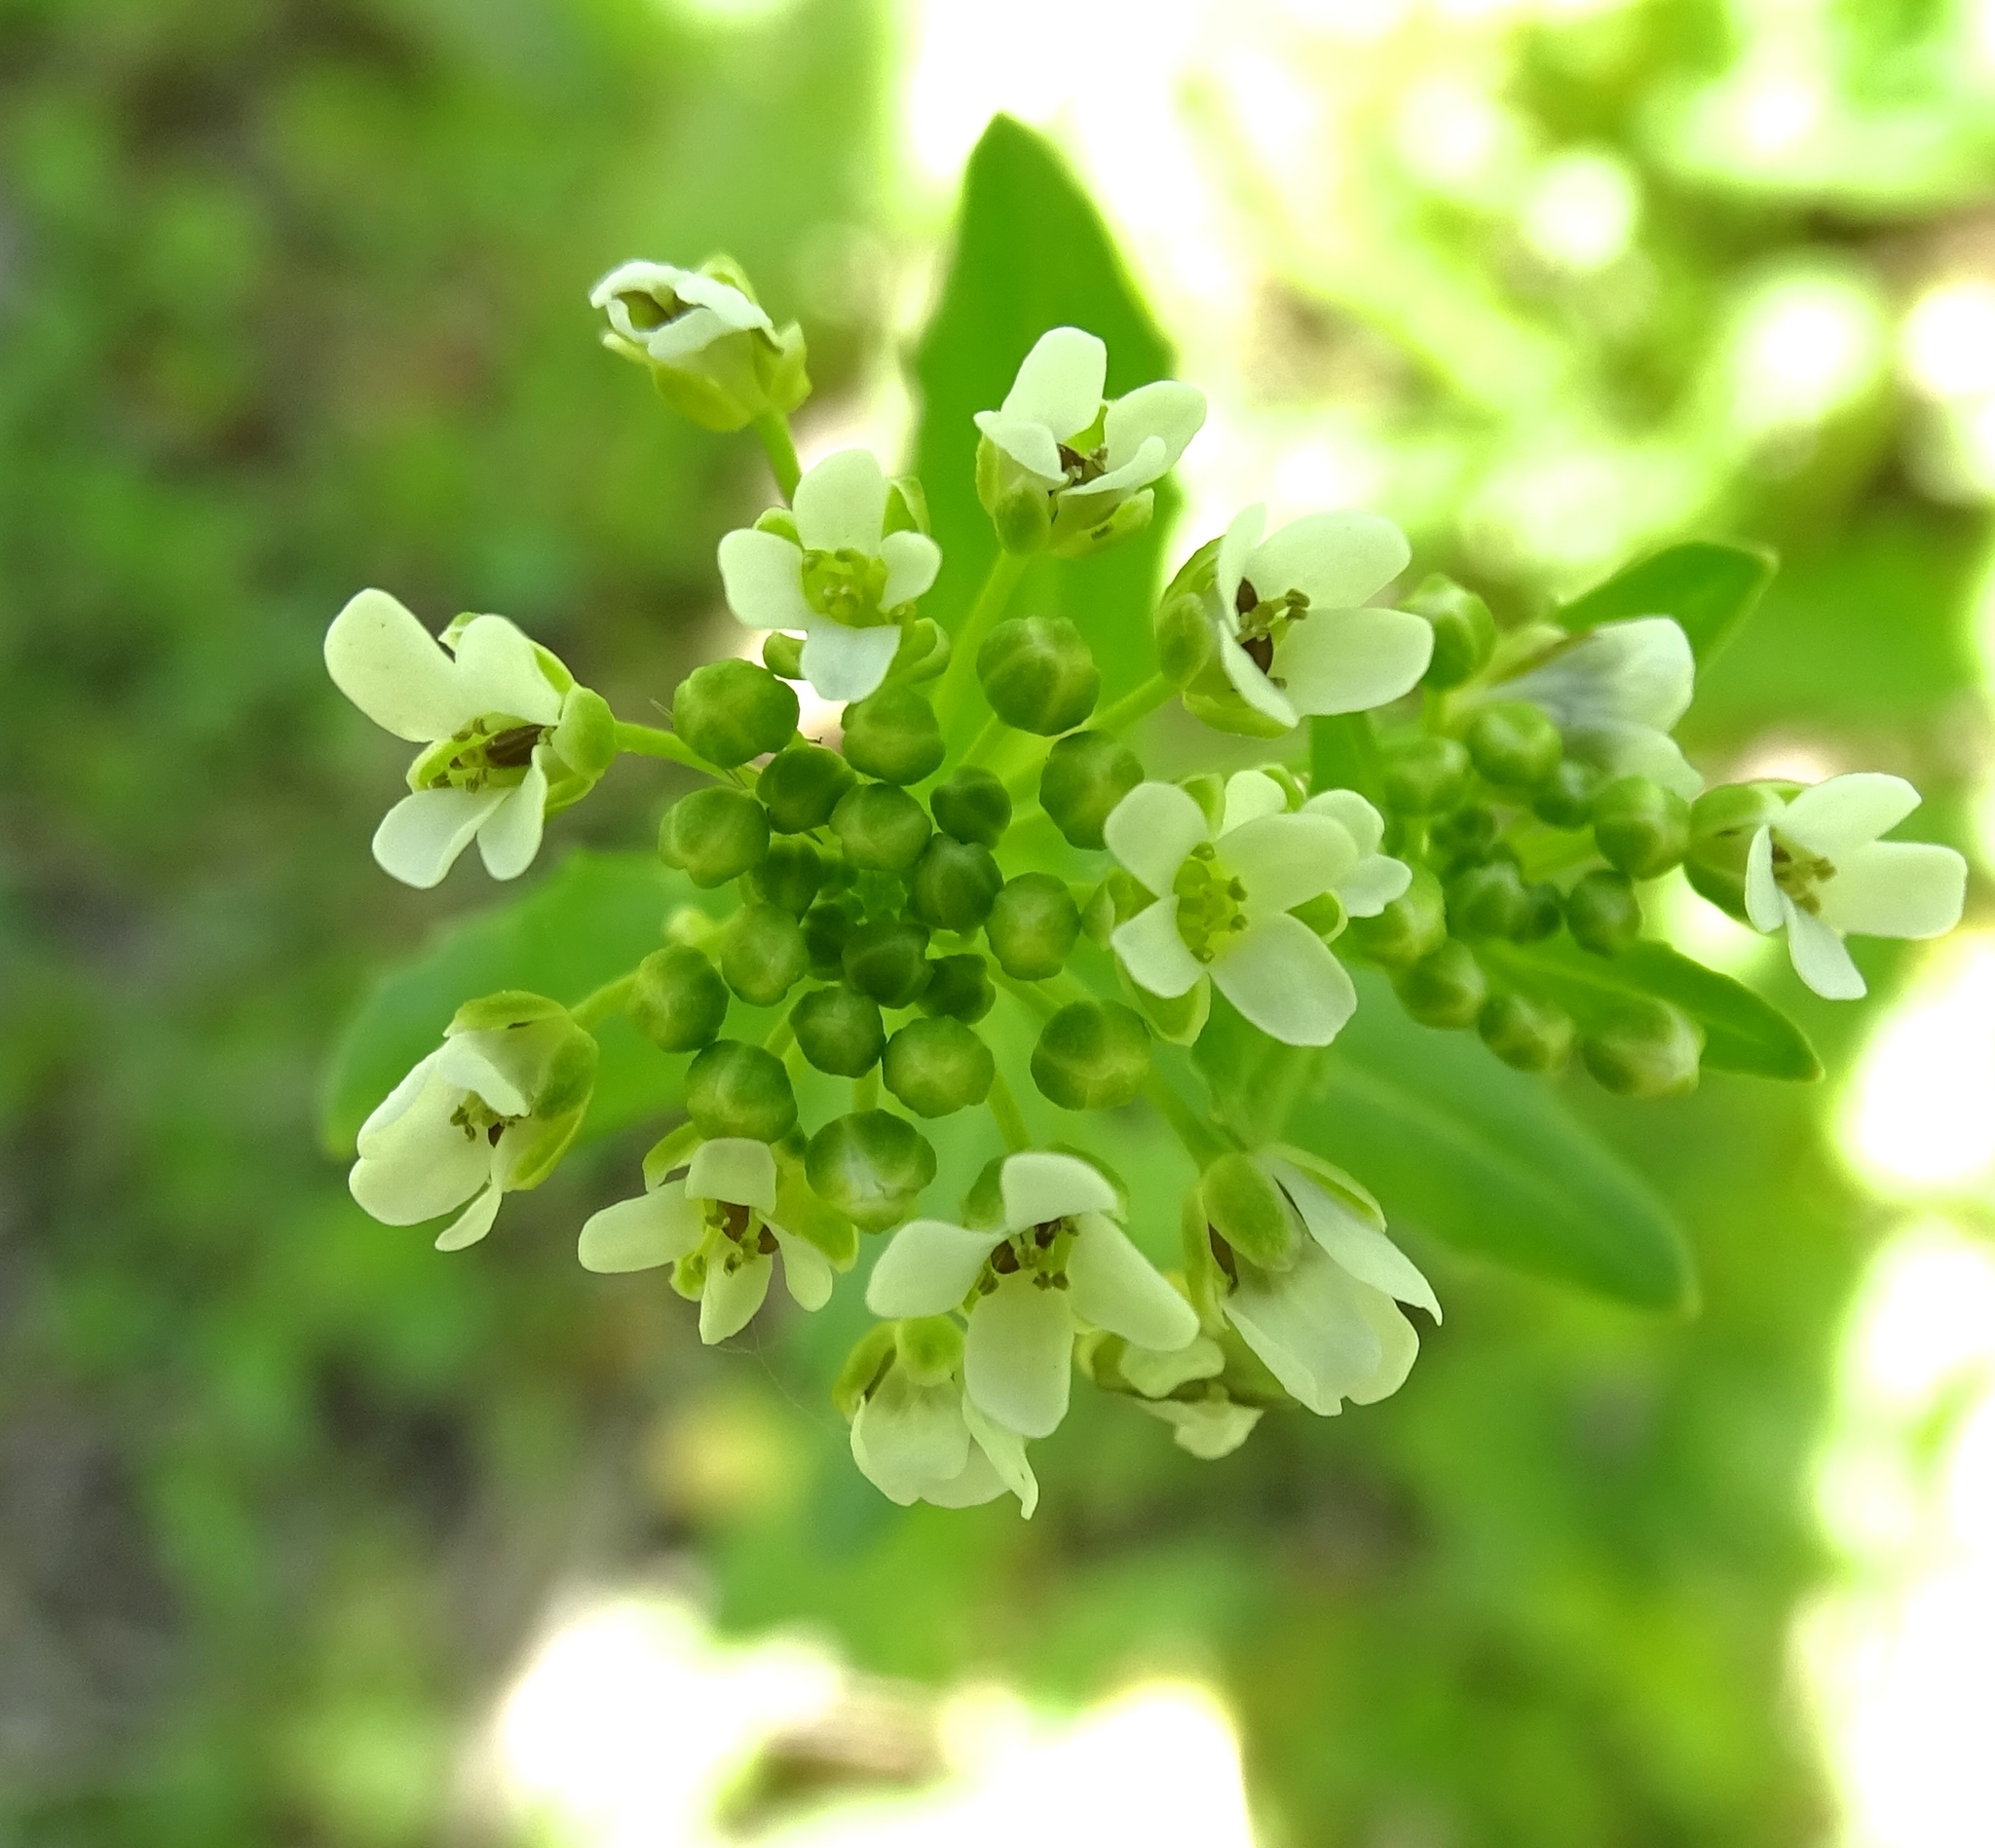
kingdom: Plantae
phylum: Tracheophyta
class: Magnoliopsida
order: Brassicales
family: Brassicaceae
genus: Thlaspi
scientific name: Thlaspi arvense
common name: Field pennycress
